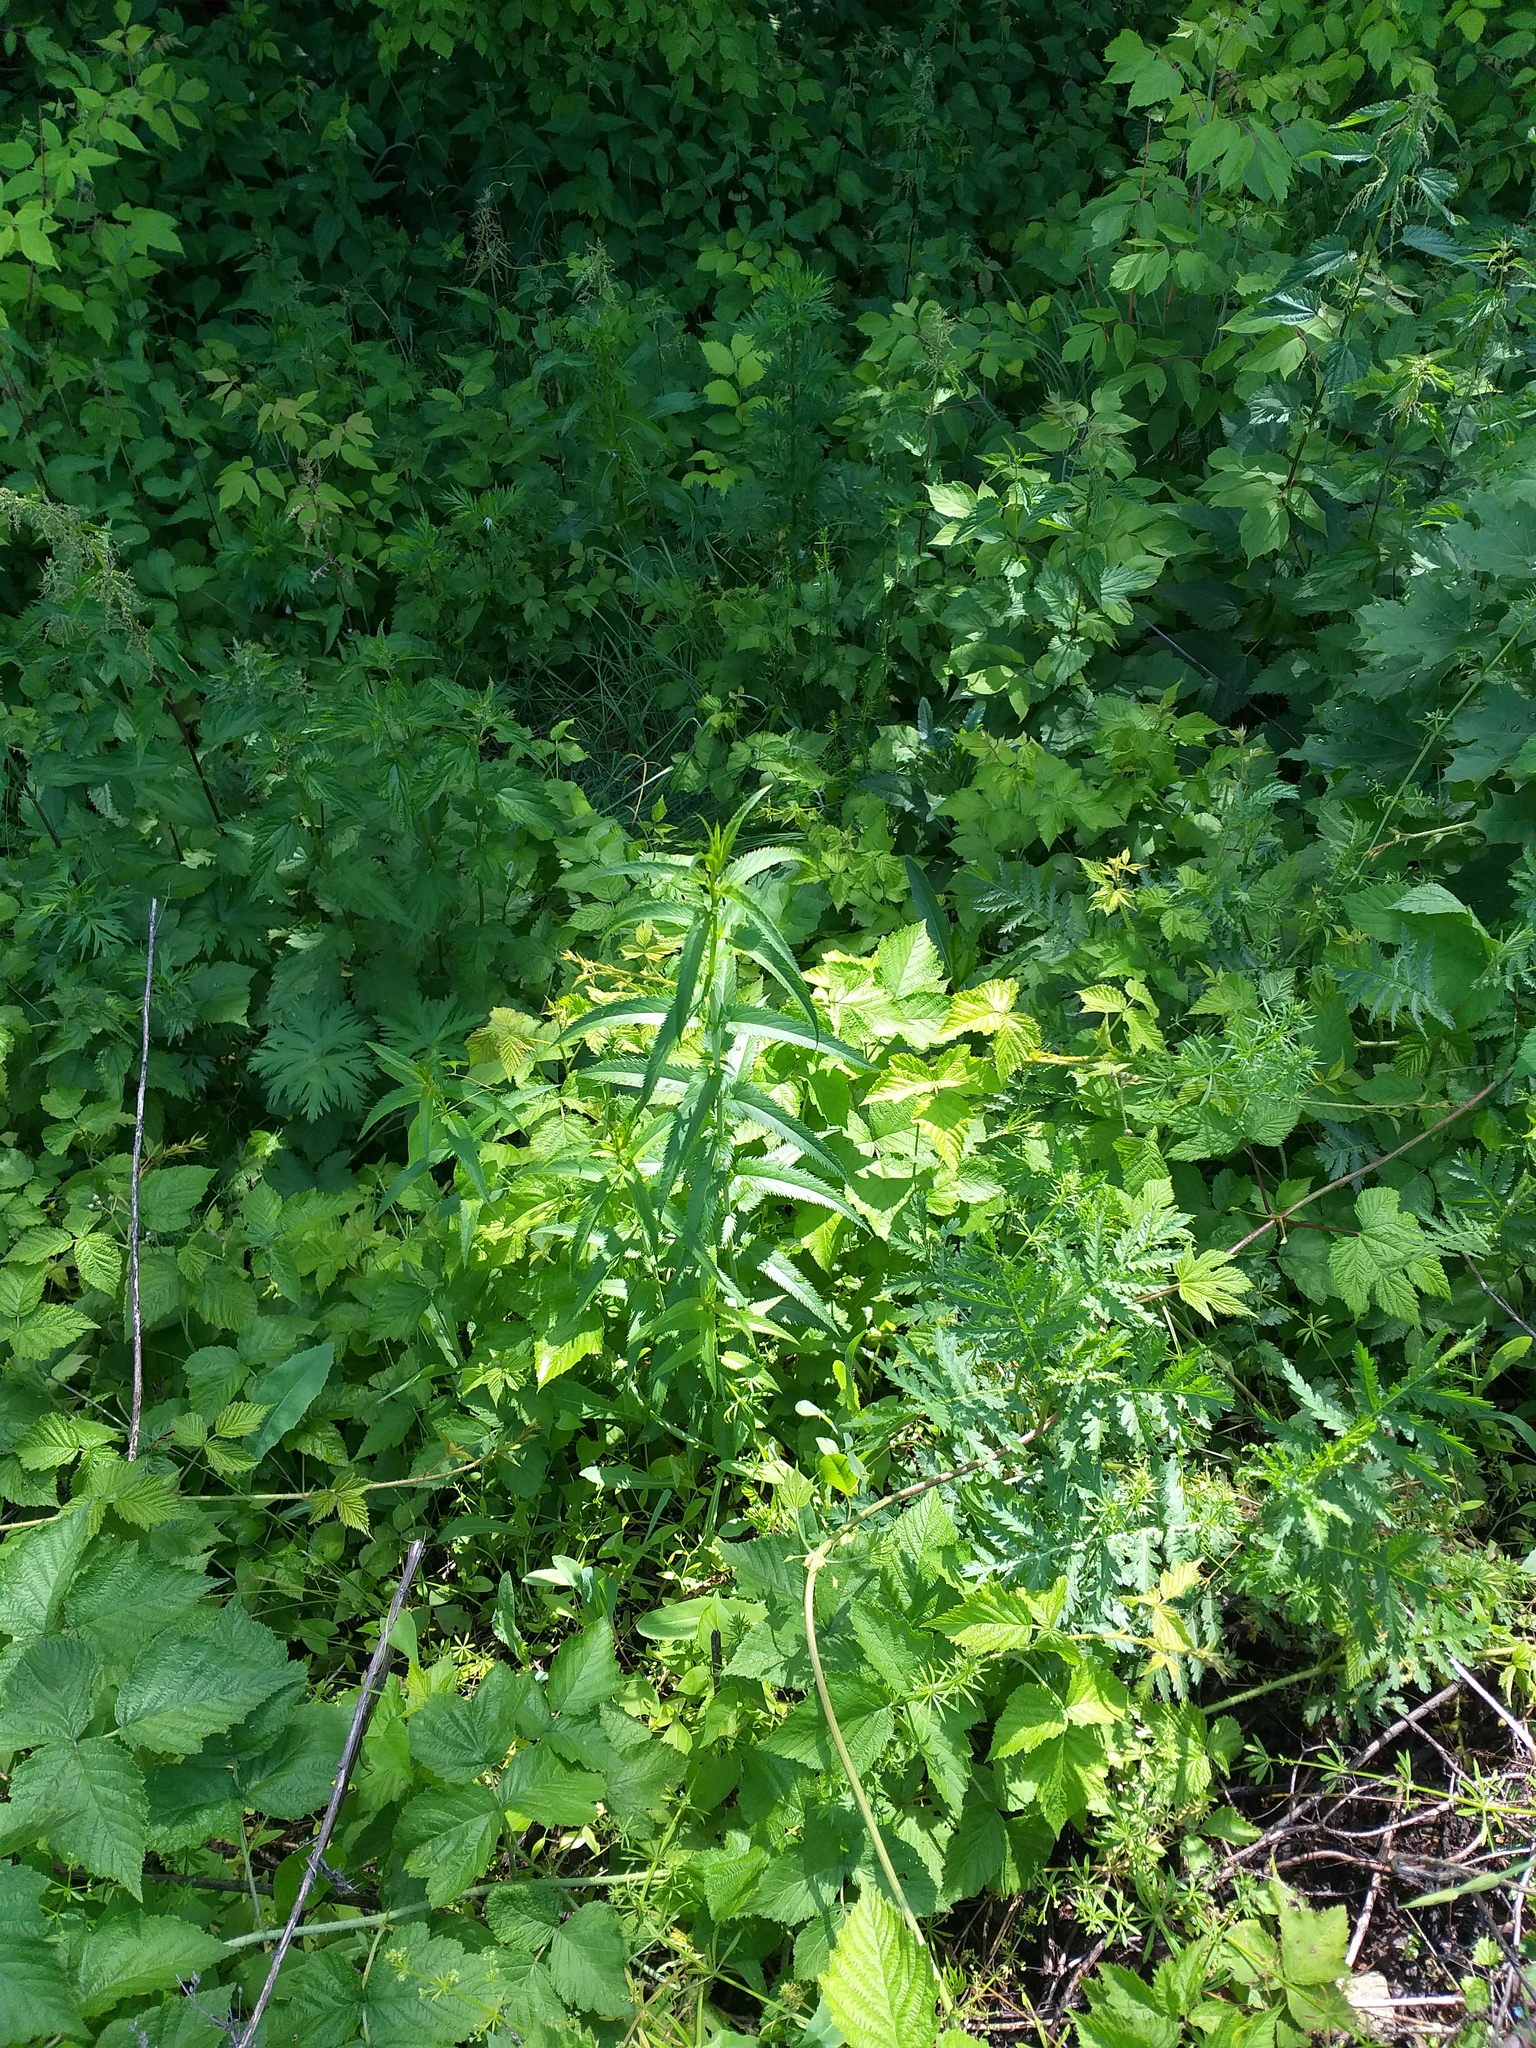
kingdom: Plantae
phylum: Tracheophyta
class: Magnoliopsida
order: Lamiales
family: Plantaginaceae
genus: Veronica
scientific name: Veronica longifolia
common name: Garden speedwell
